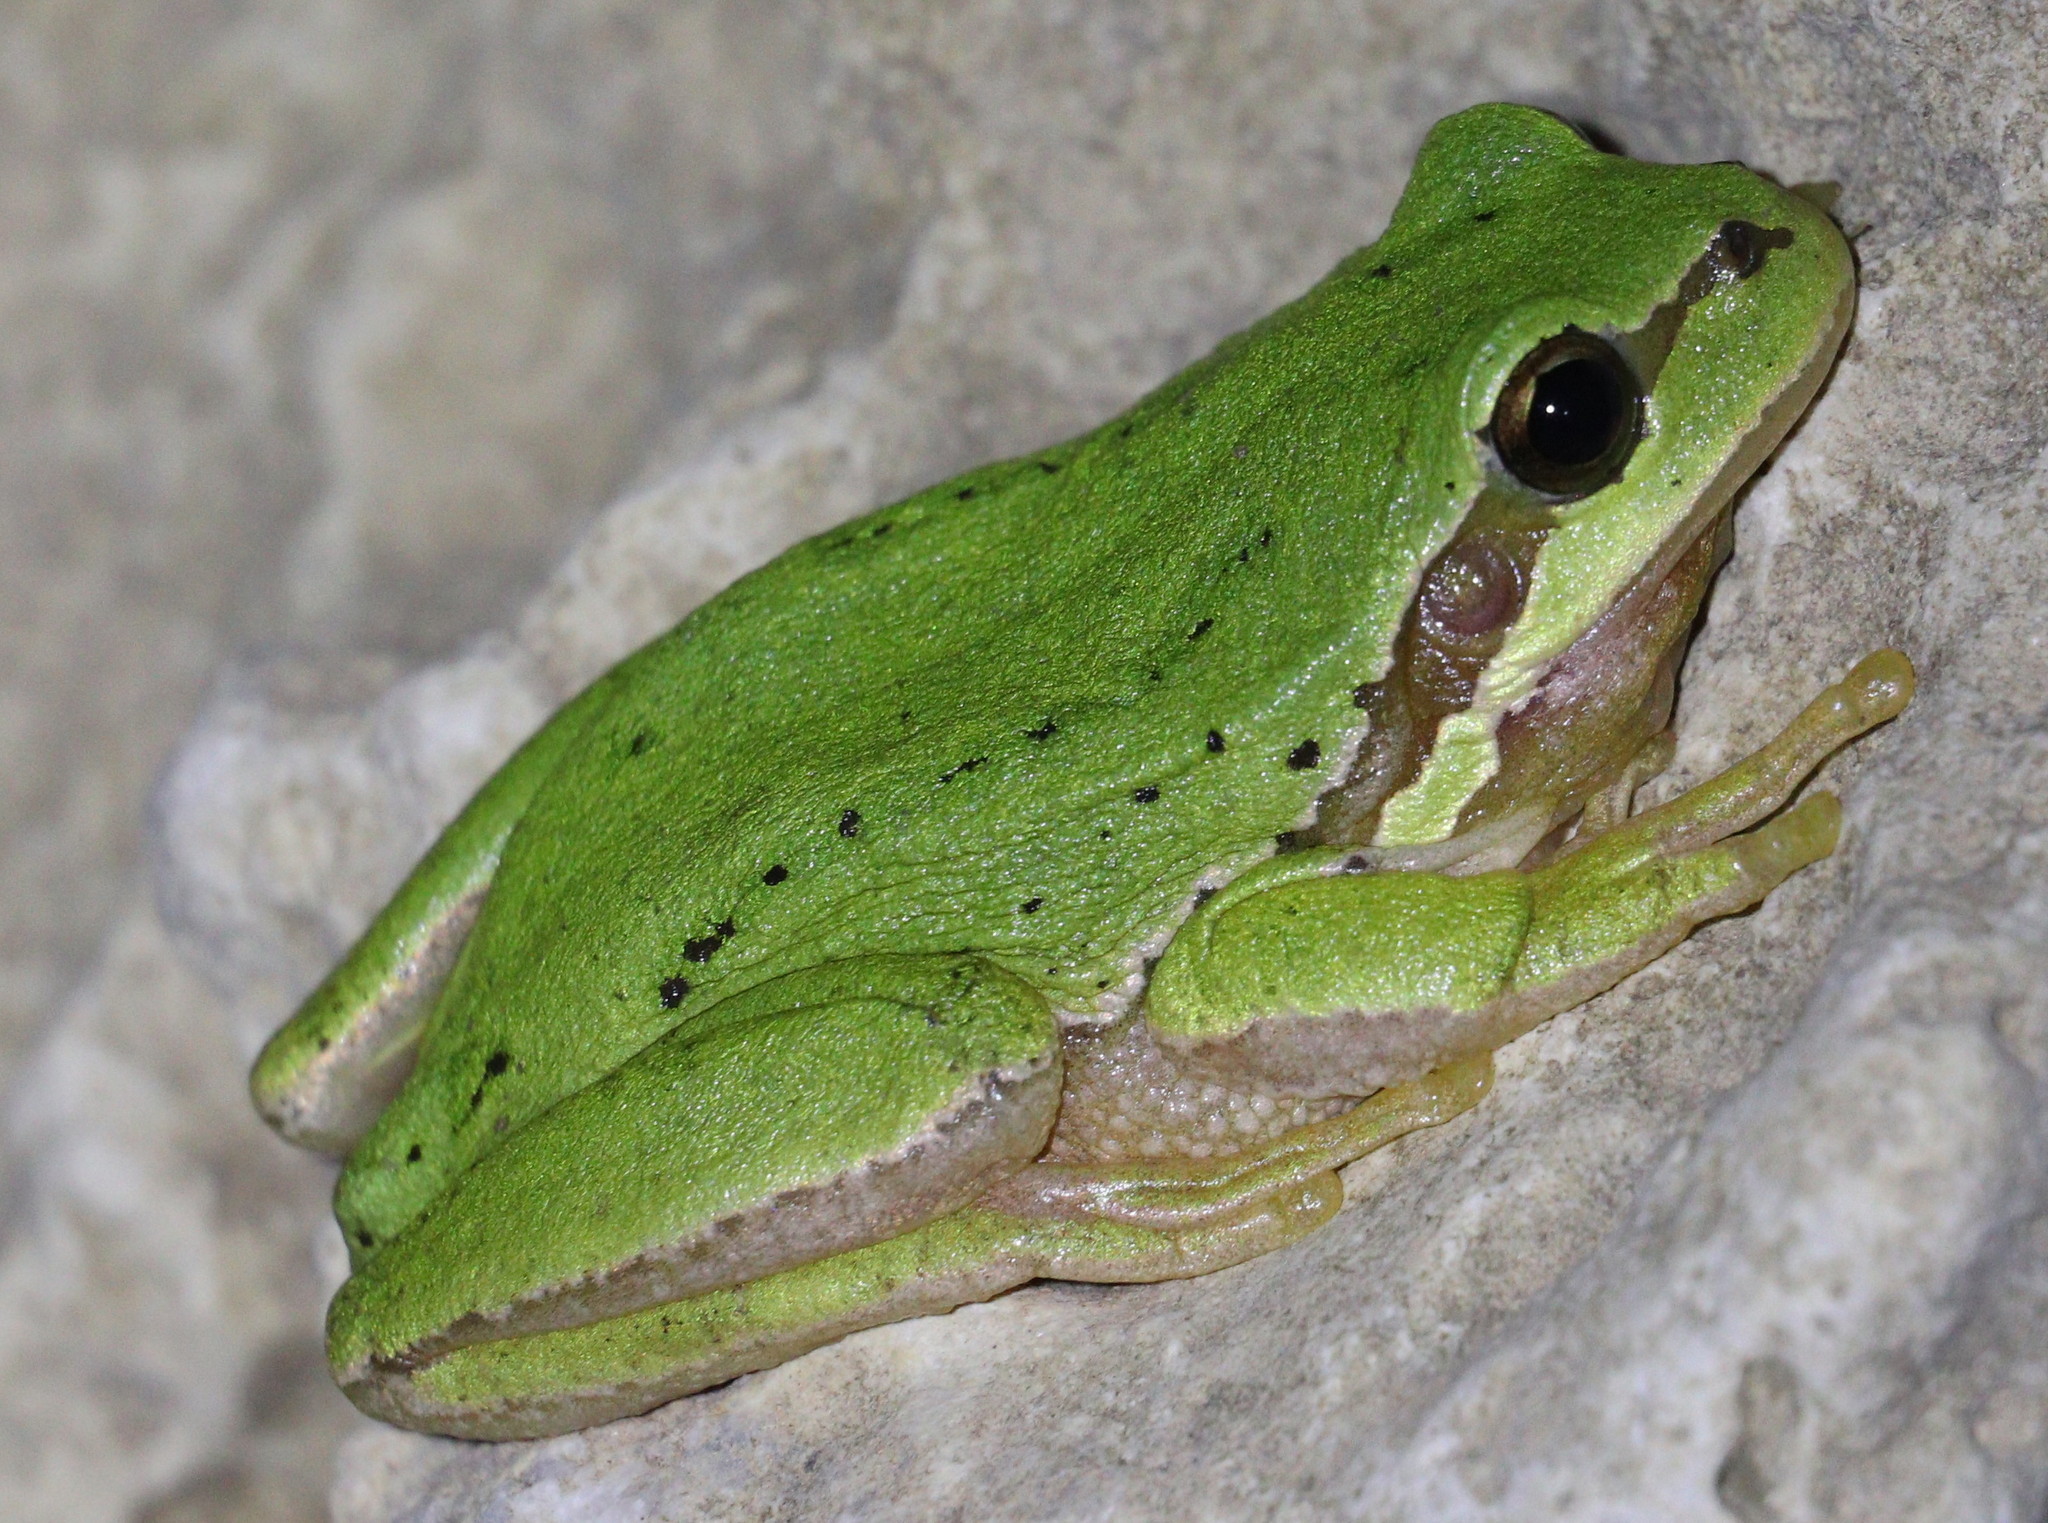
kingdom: Animalia
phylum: Chordata
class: Amphibia
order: Anura
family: Hylidae
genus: Hyla
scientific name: Hyla savignyi
